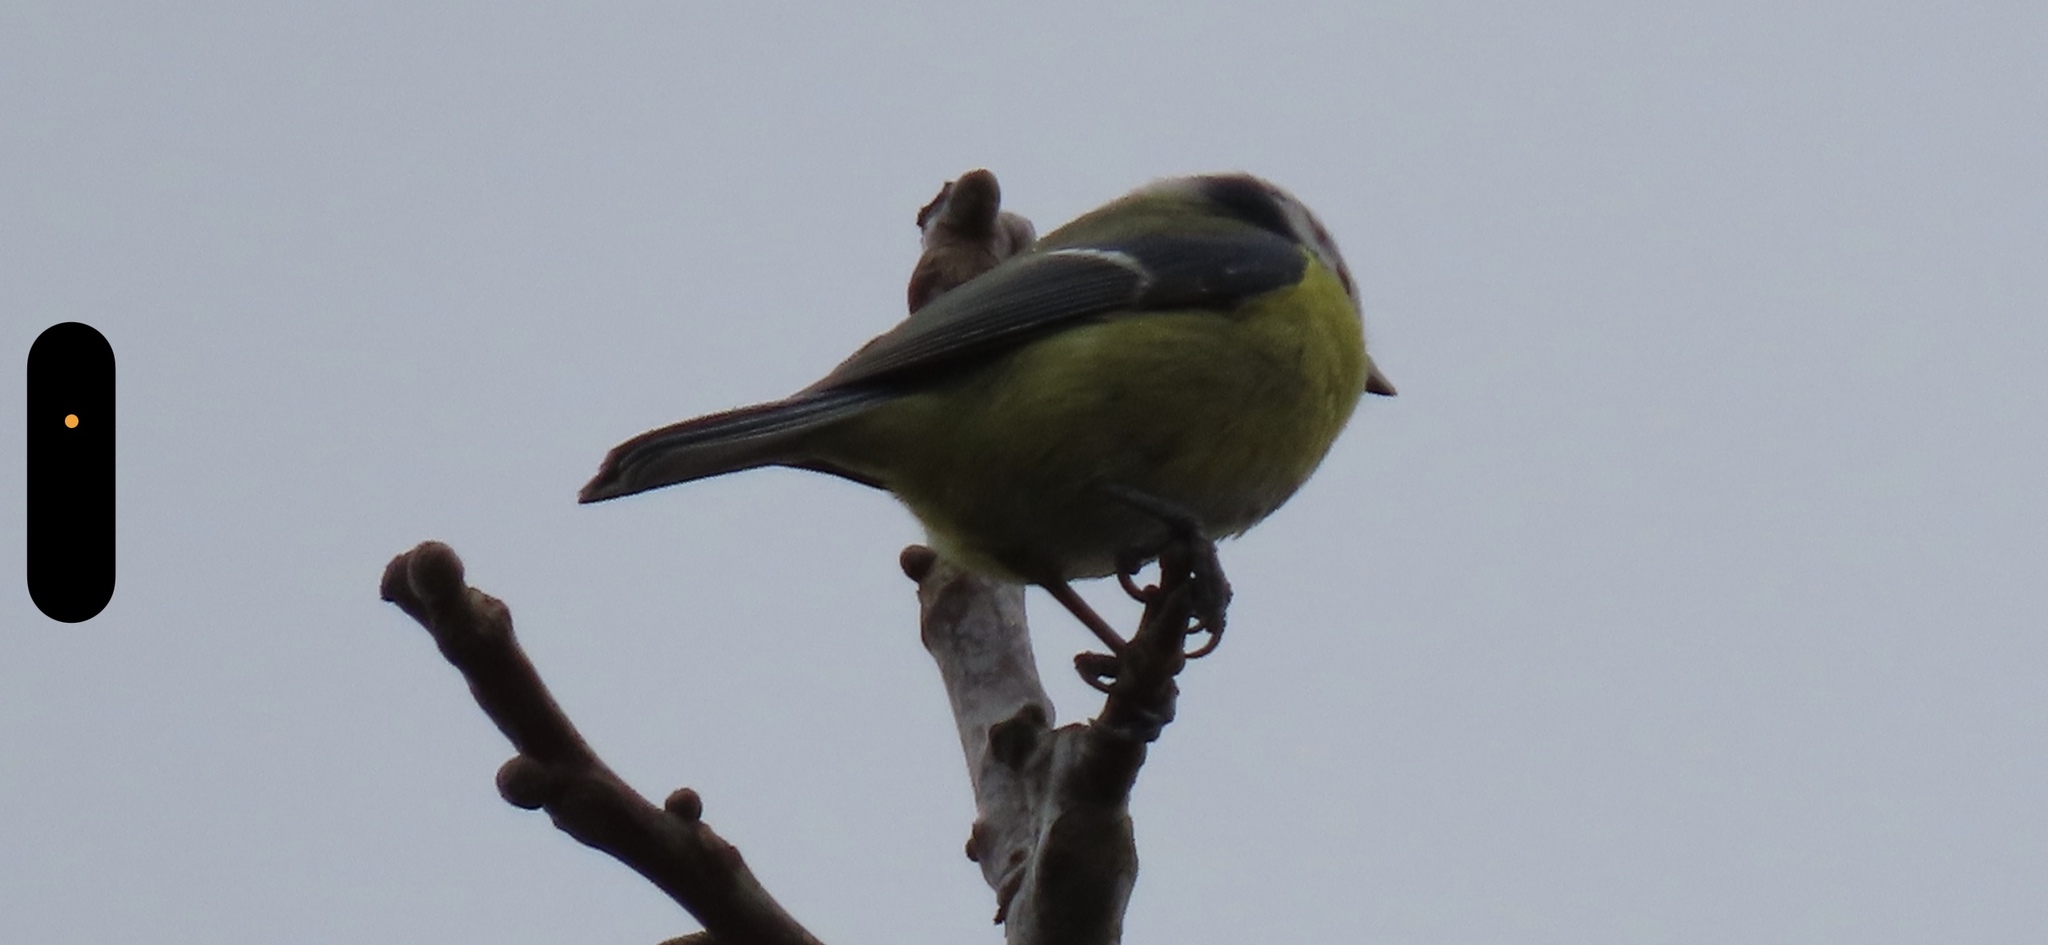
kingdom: Animalia
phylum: Chordata
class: Aves
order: Passeriformes
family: Paridae
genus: Cyanistes
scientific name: Cyanistes caeruleus
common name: Eurasian blue tit
